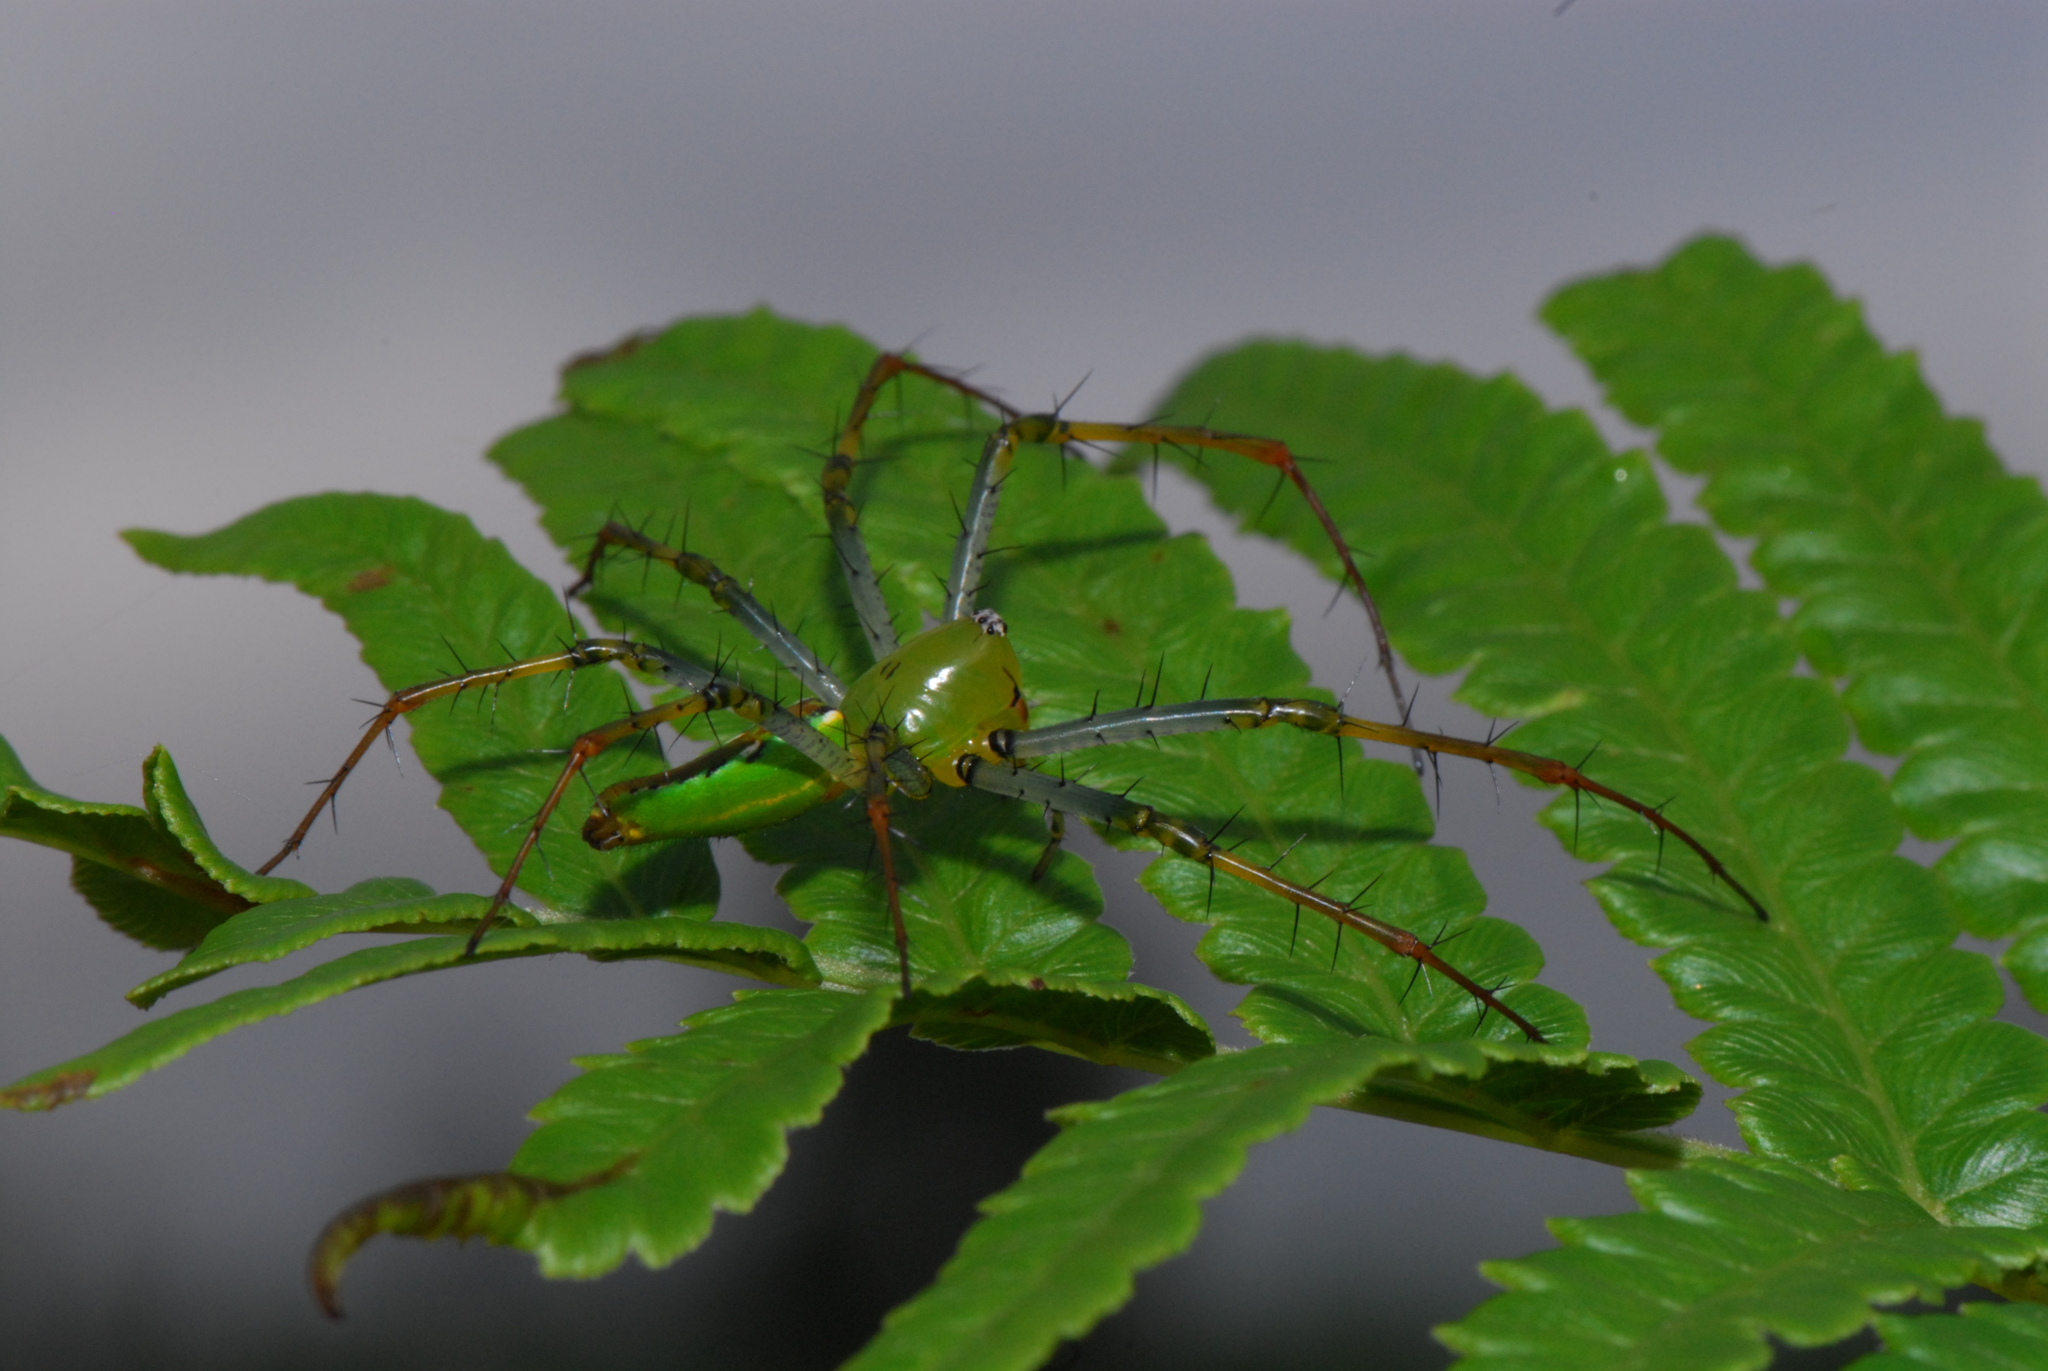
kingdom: Animalia
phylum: Arthropoda
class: Arachnida
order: Araneae
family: Oxyopidae
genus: Peucetia
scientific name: Peucetia lucasi
